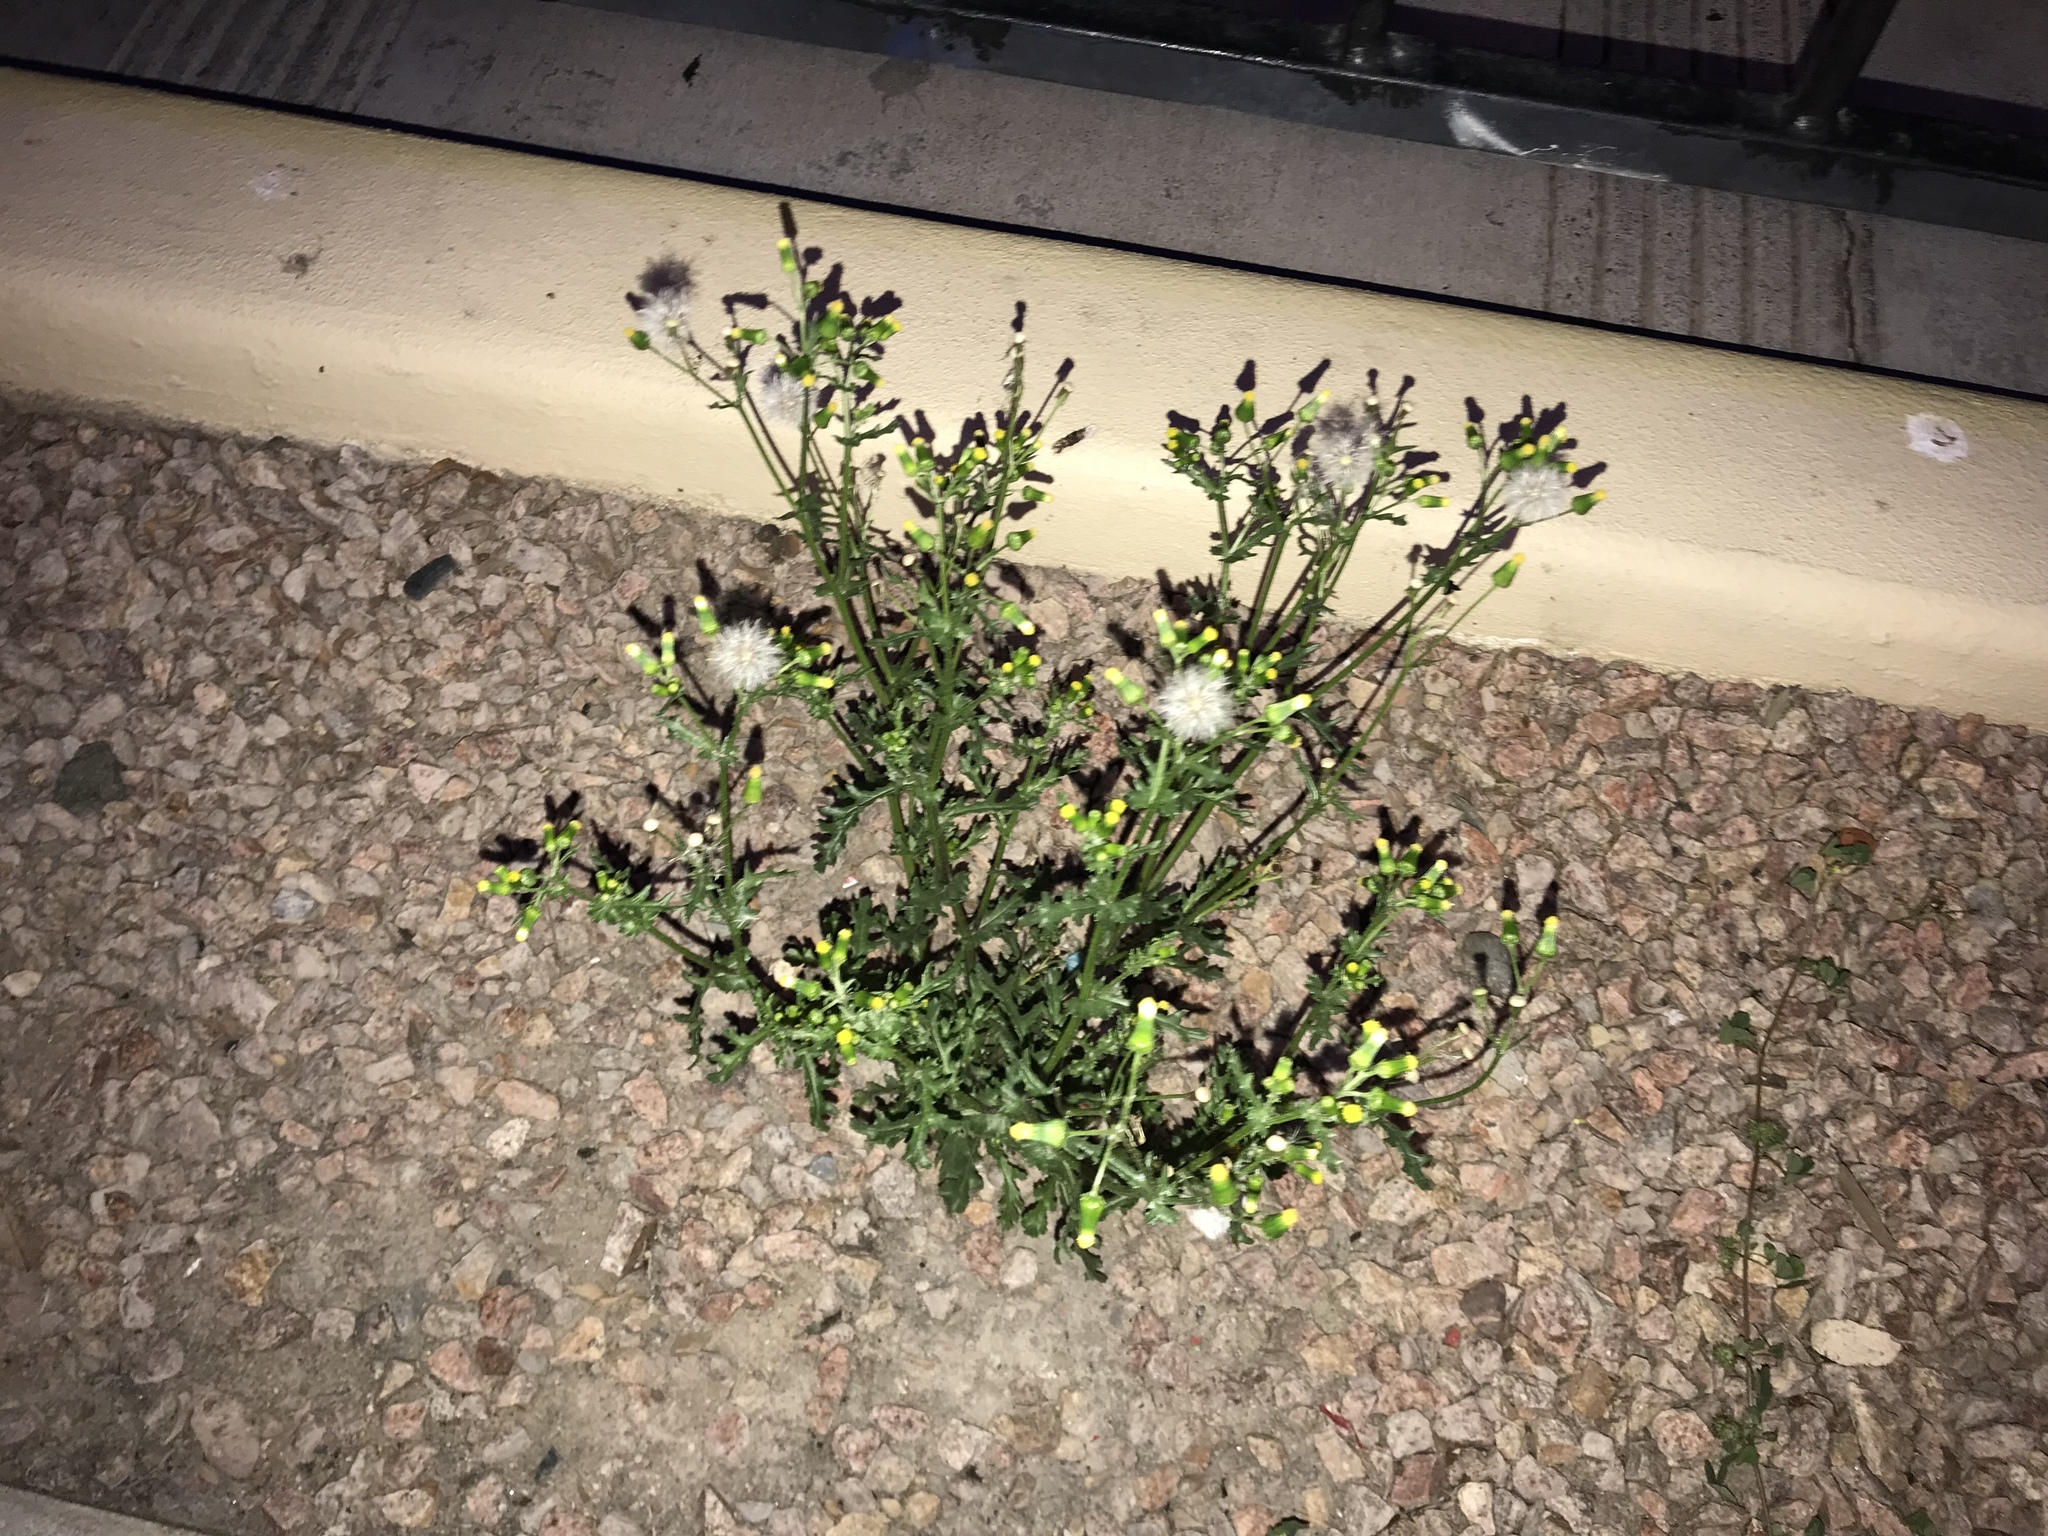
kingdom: Plantae
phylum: Tracheophyta
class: Magnoliopsida
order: Asterales
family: Asteraceae
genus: Senecio
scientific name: Senecio vulgaris
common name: Old-man-in-the-spring
